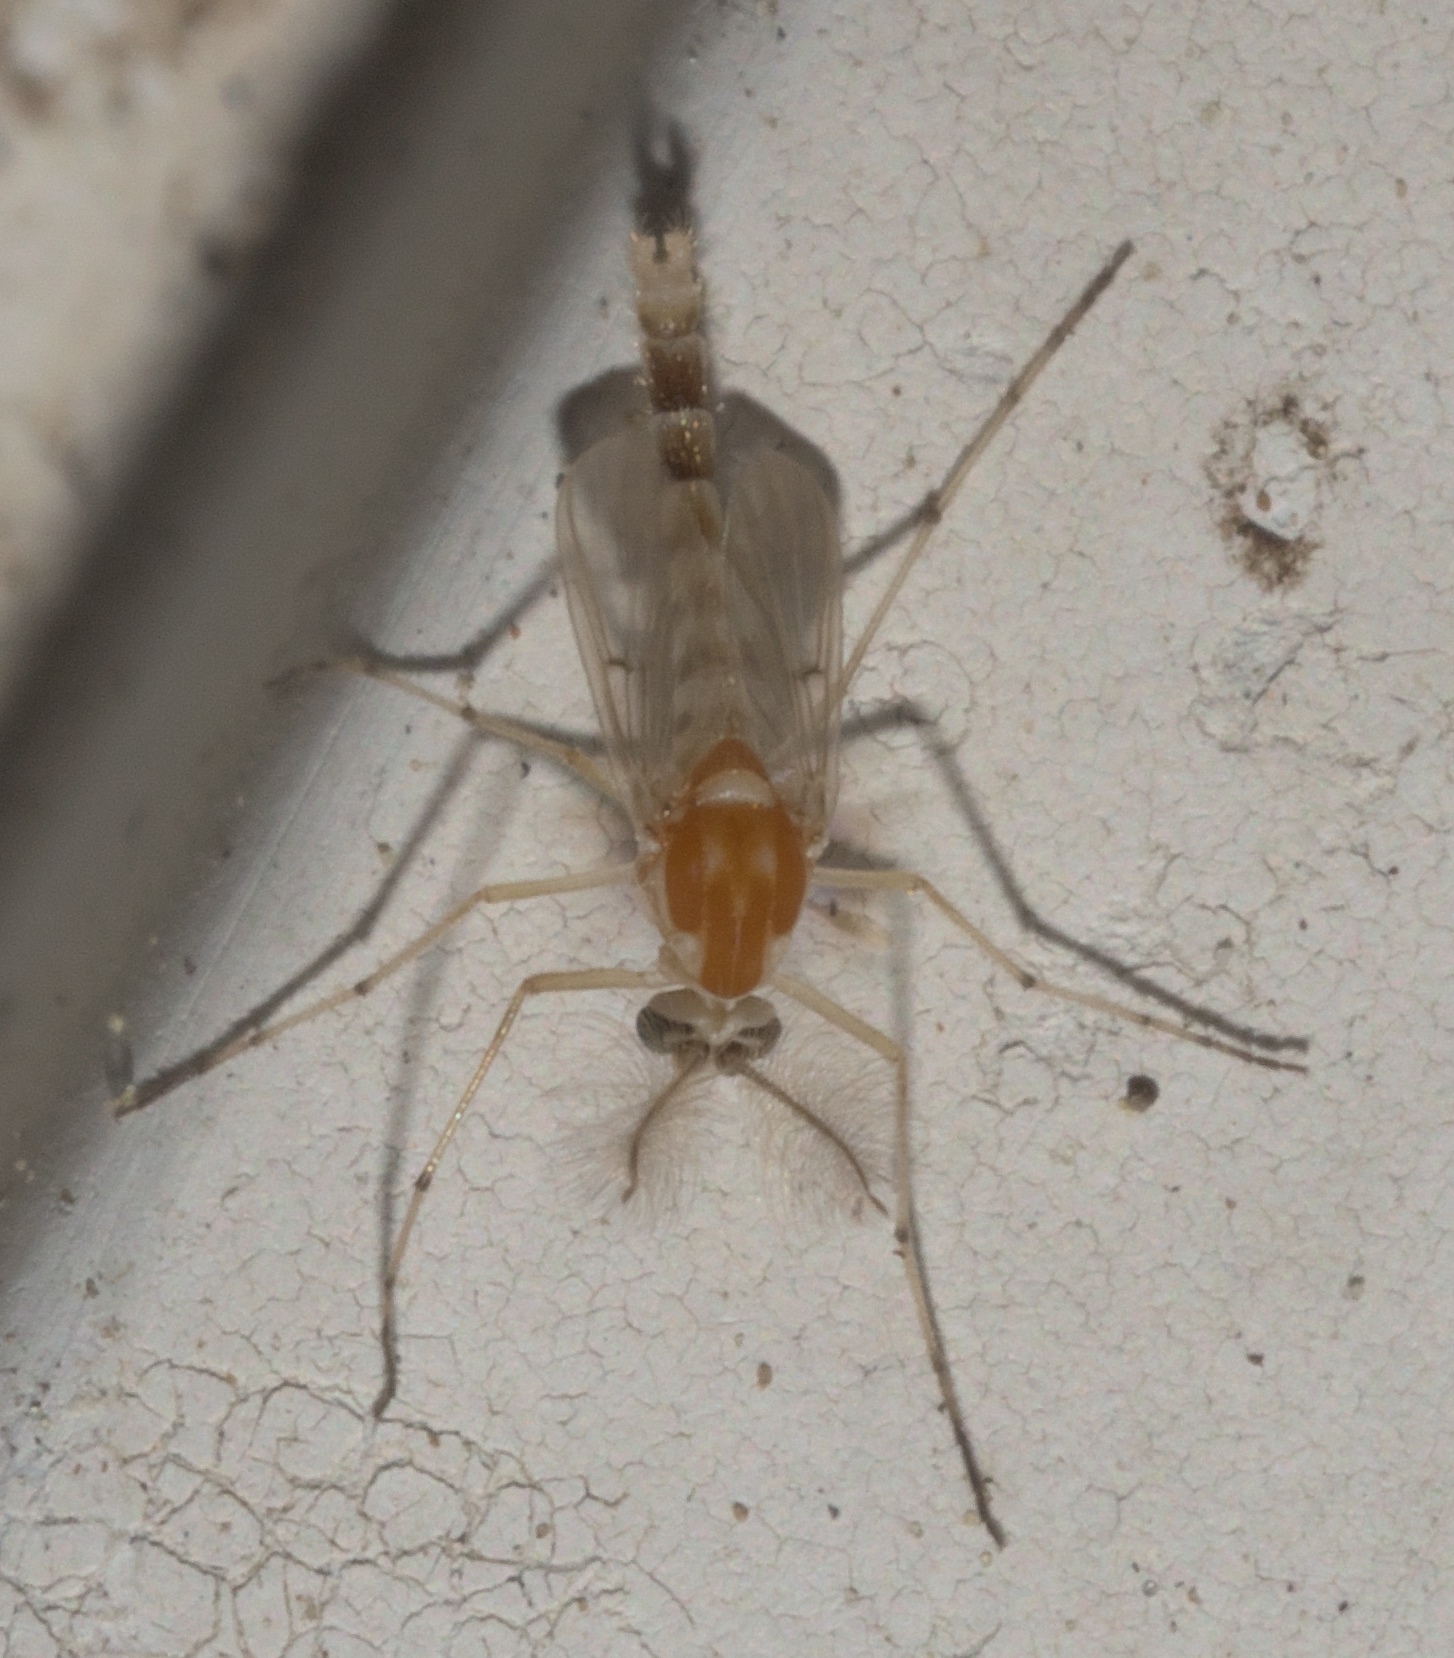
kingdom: Animalia
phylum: Arthropoda
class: Insecta
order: Diptera
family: Chironomidae
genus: Procladius
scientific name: Procladius bellus
